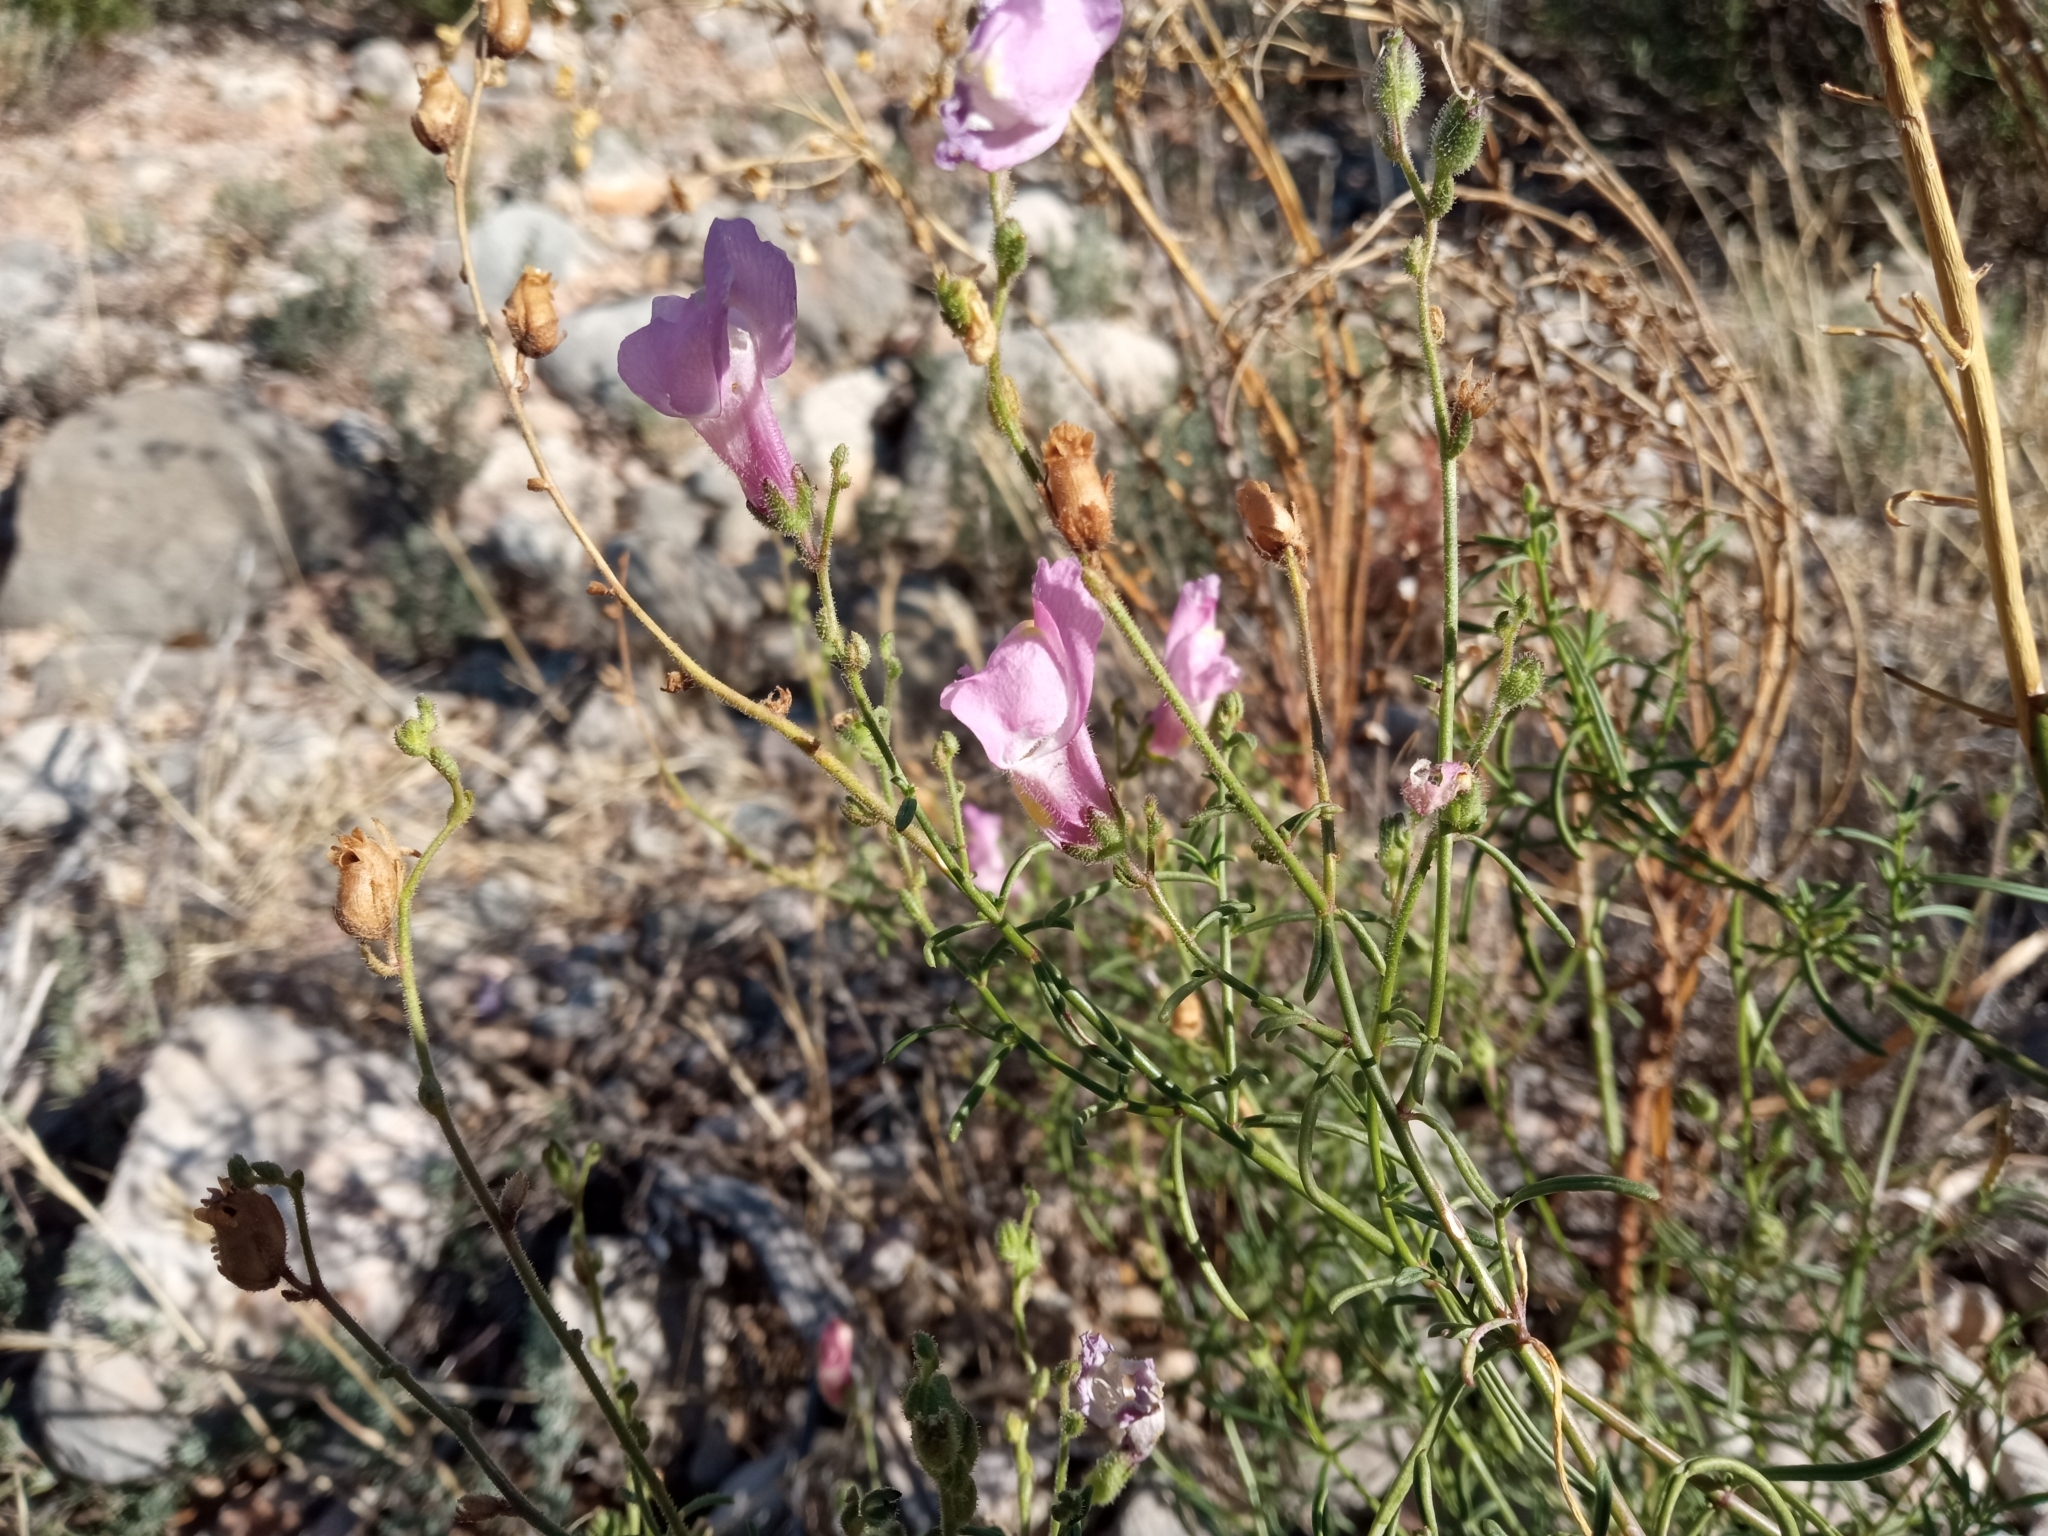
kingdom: Plantae
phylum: Tracheophyta
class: Magnoliopsida
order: Lamiales
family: Plantaginaceae
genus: Antirrhinum
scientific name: Antirrhinum litigiosum
